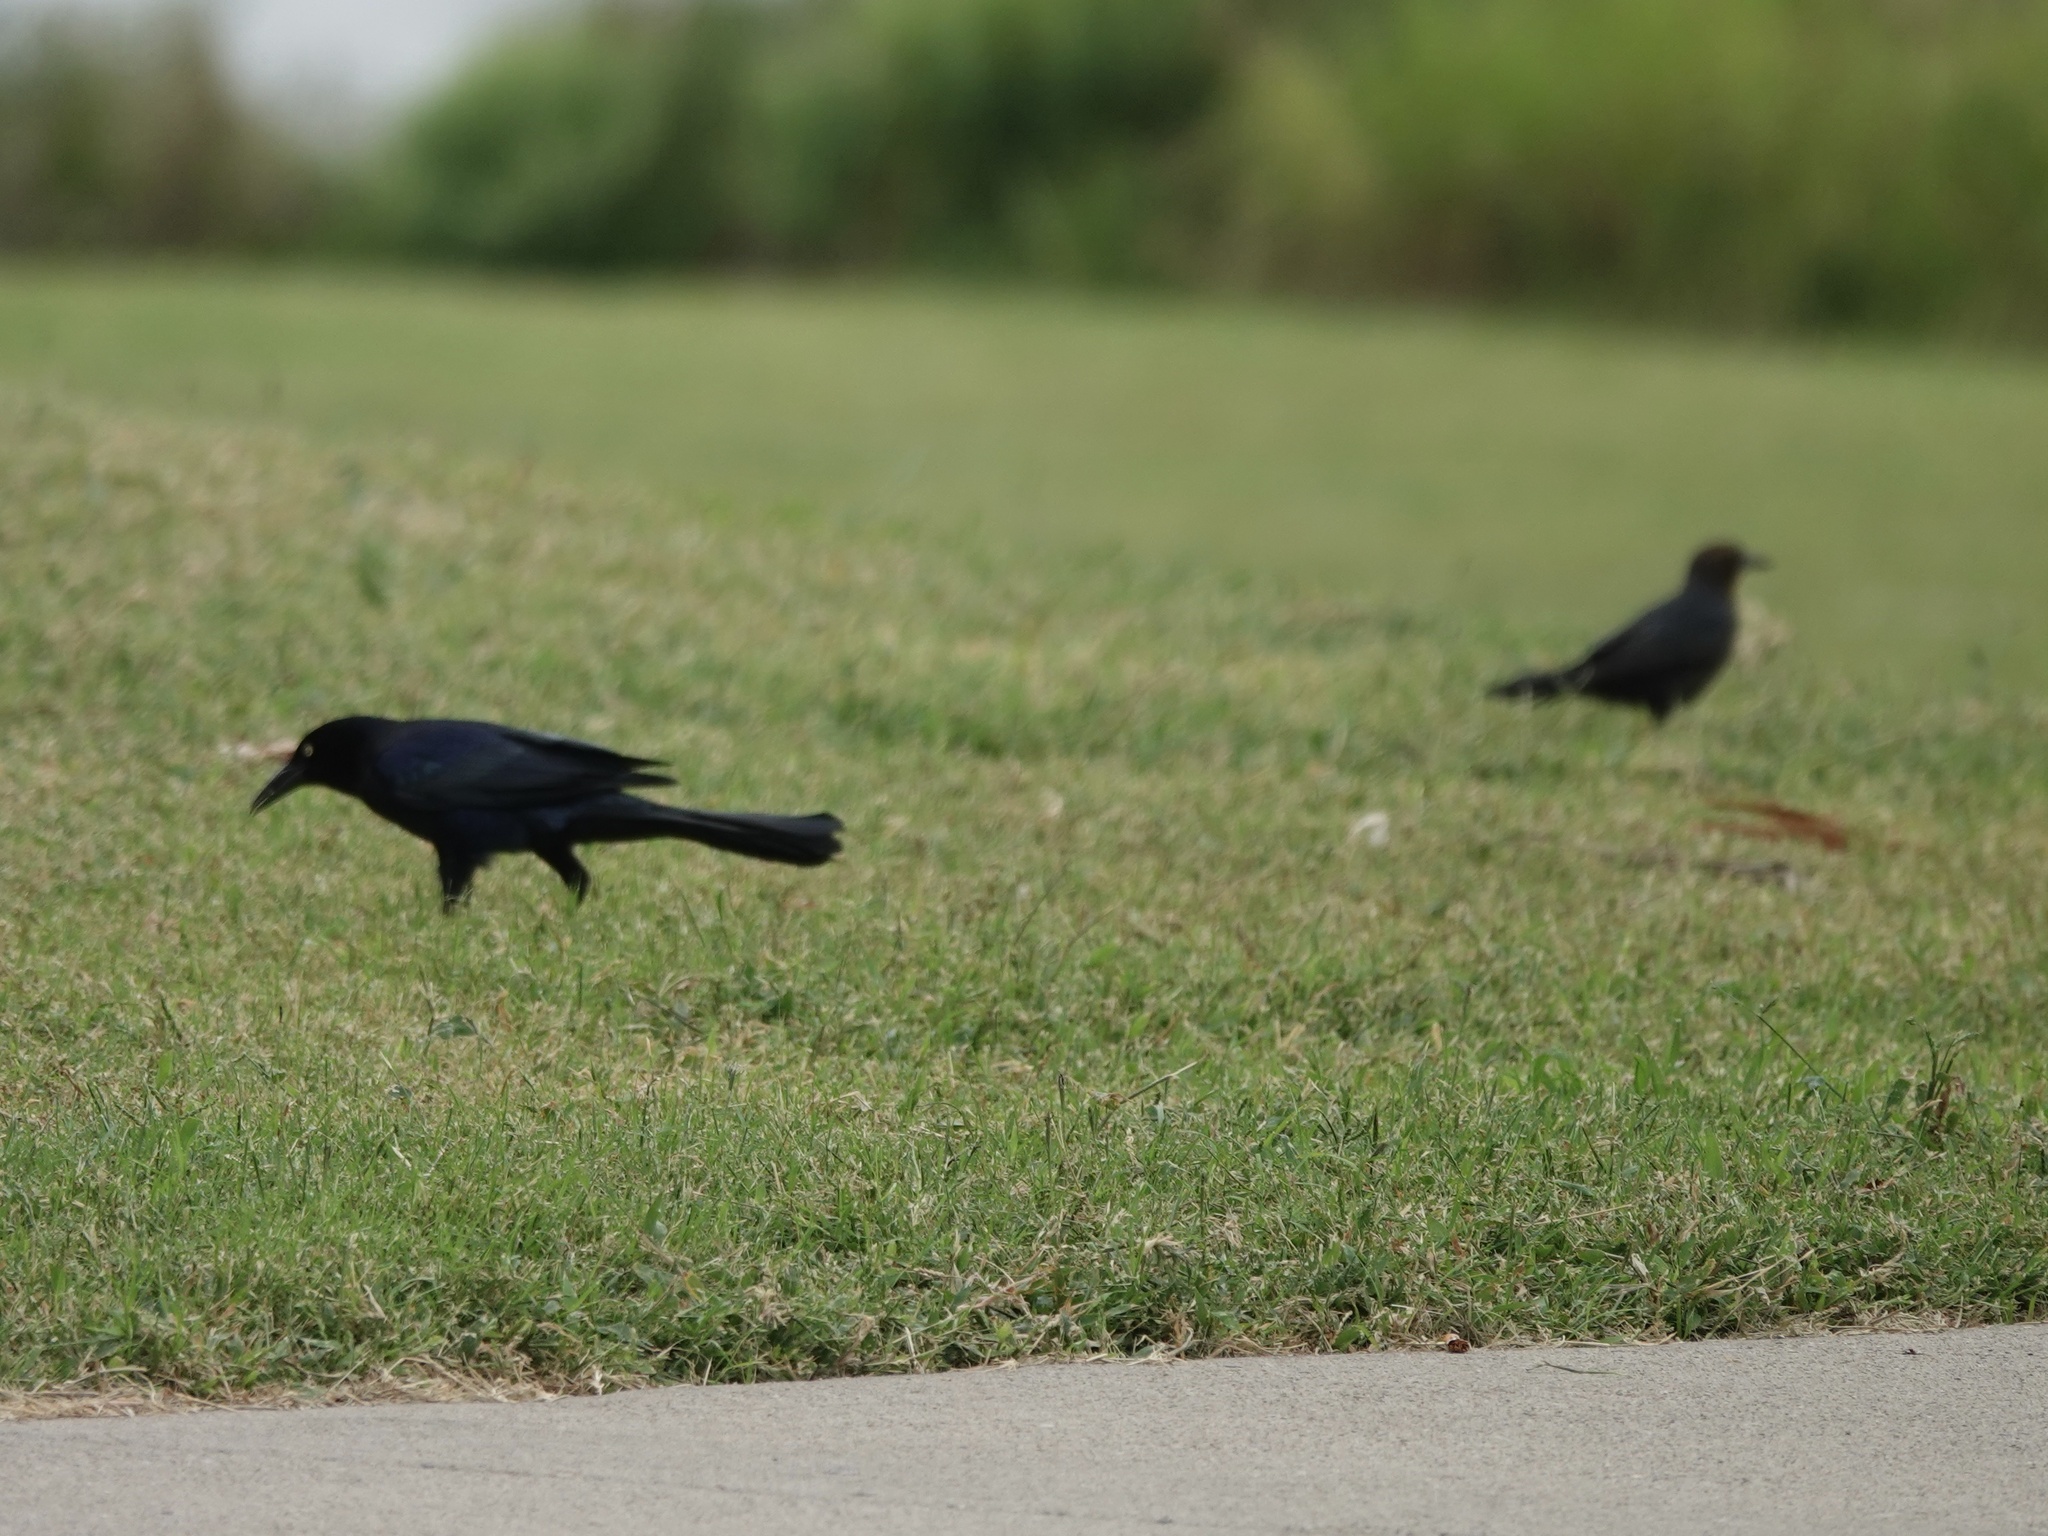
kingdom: Animalia
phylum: Chordata
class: Aves
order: Passeriformes
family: Icteridae
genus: Quiscalus
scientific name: Quiscalus mexicanus
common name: Great-tailed grackle
